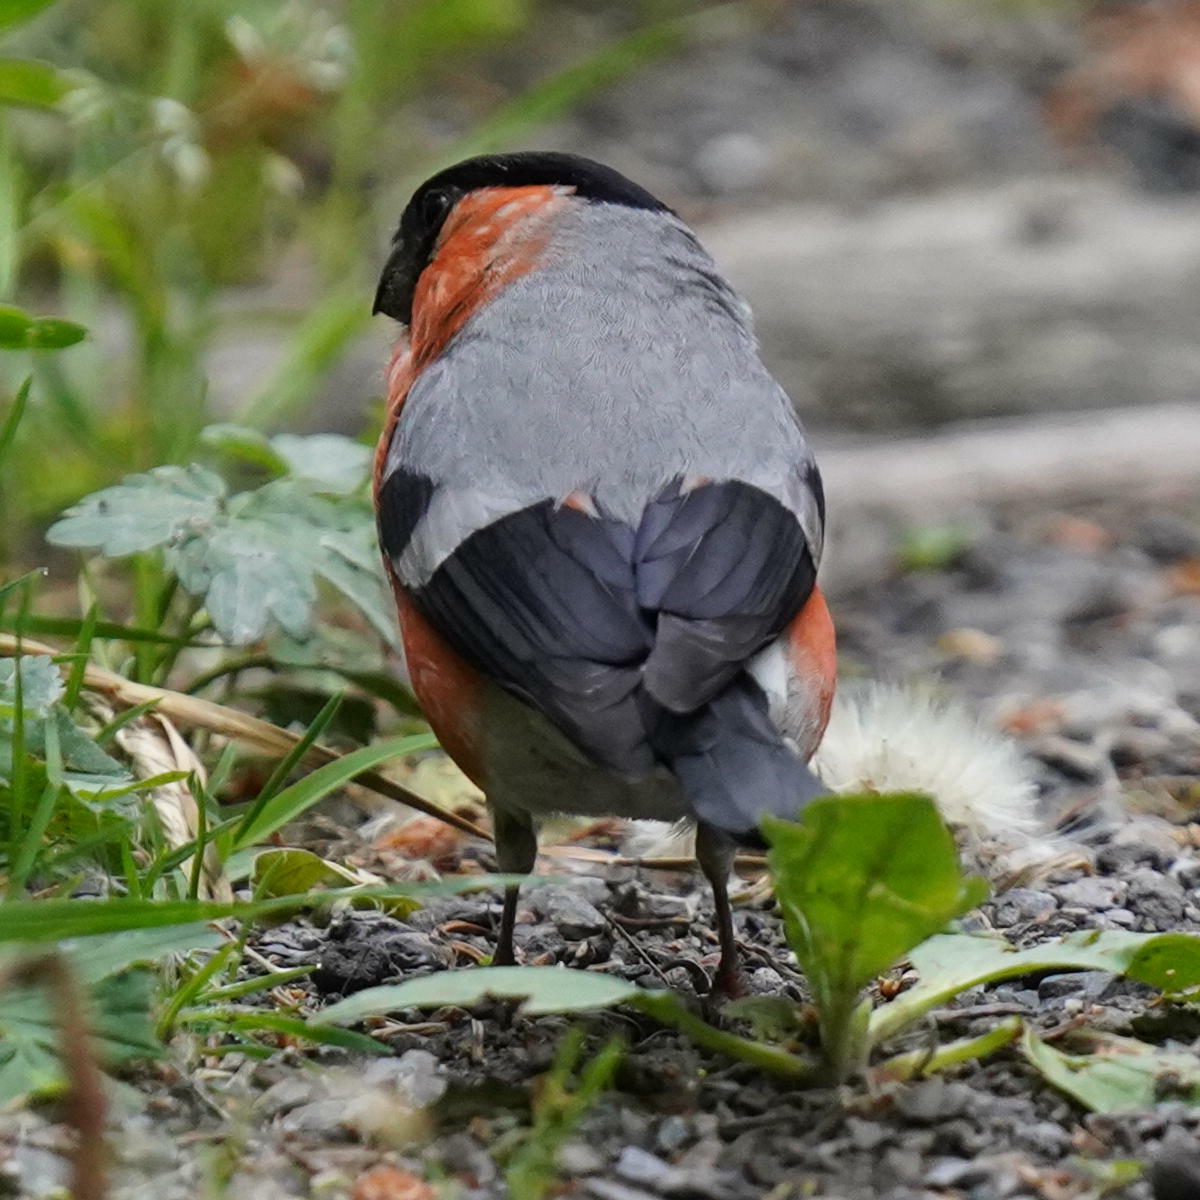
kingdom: Animalia
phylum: Chordata
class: Aves
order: Passeriformes
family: Fringillidae
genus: Pyrrhula
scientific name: Pyrrhula pyrrhula
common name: Eurasian bullfinch
